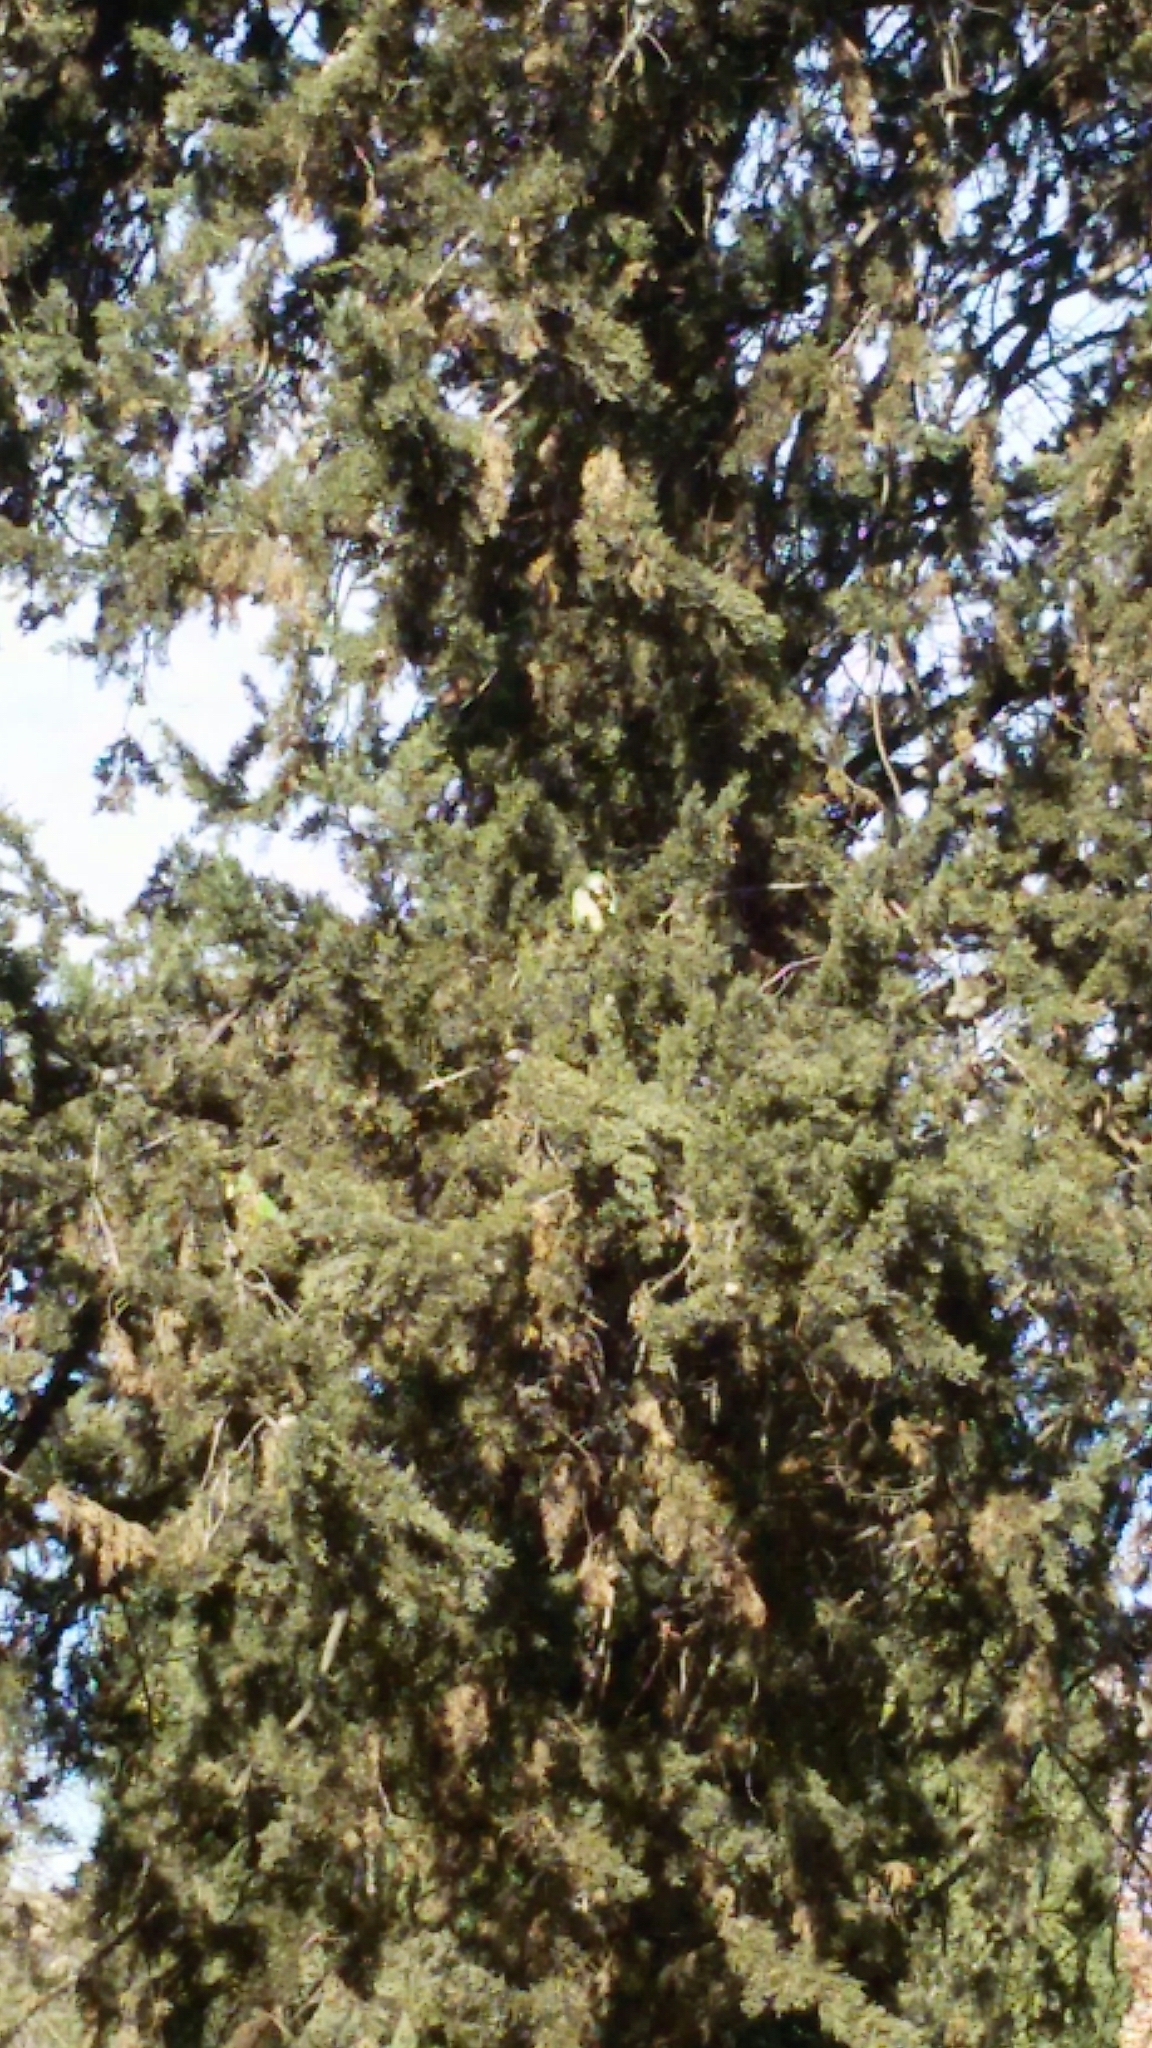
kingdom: Animalia
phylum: Chordata
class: Aves
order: Psittaciformes
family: Psittacidae
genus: Myiopsitta
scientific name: Myiopsitta monachus
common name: Monk parakeet
